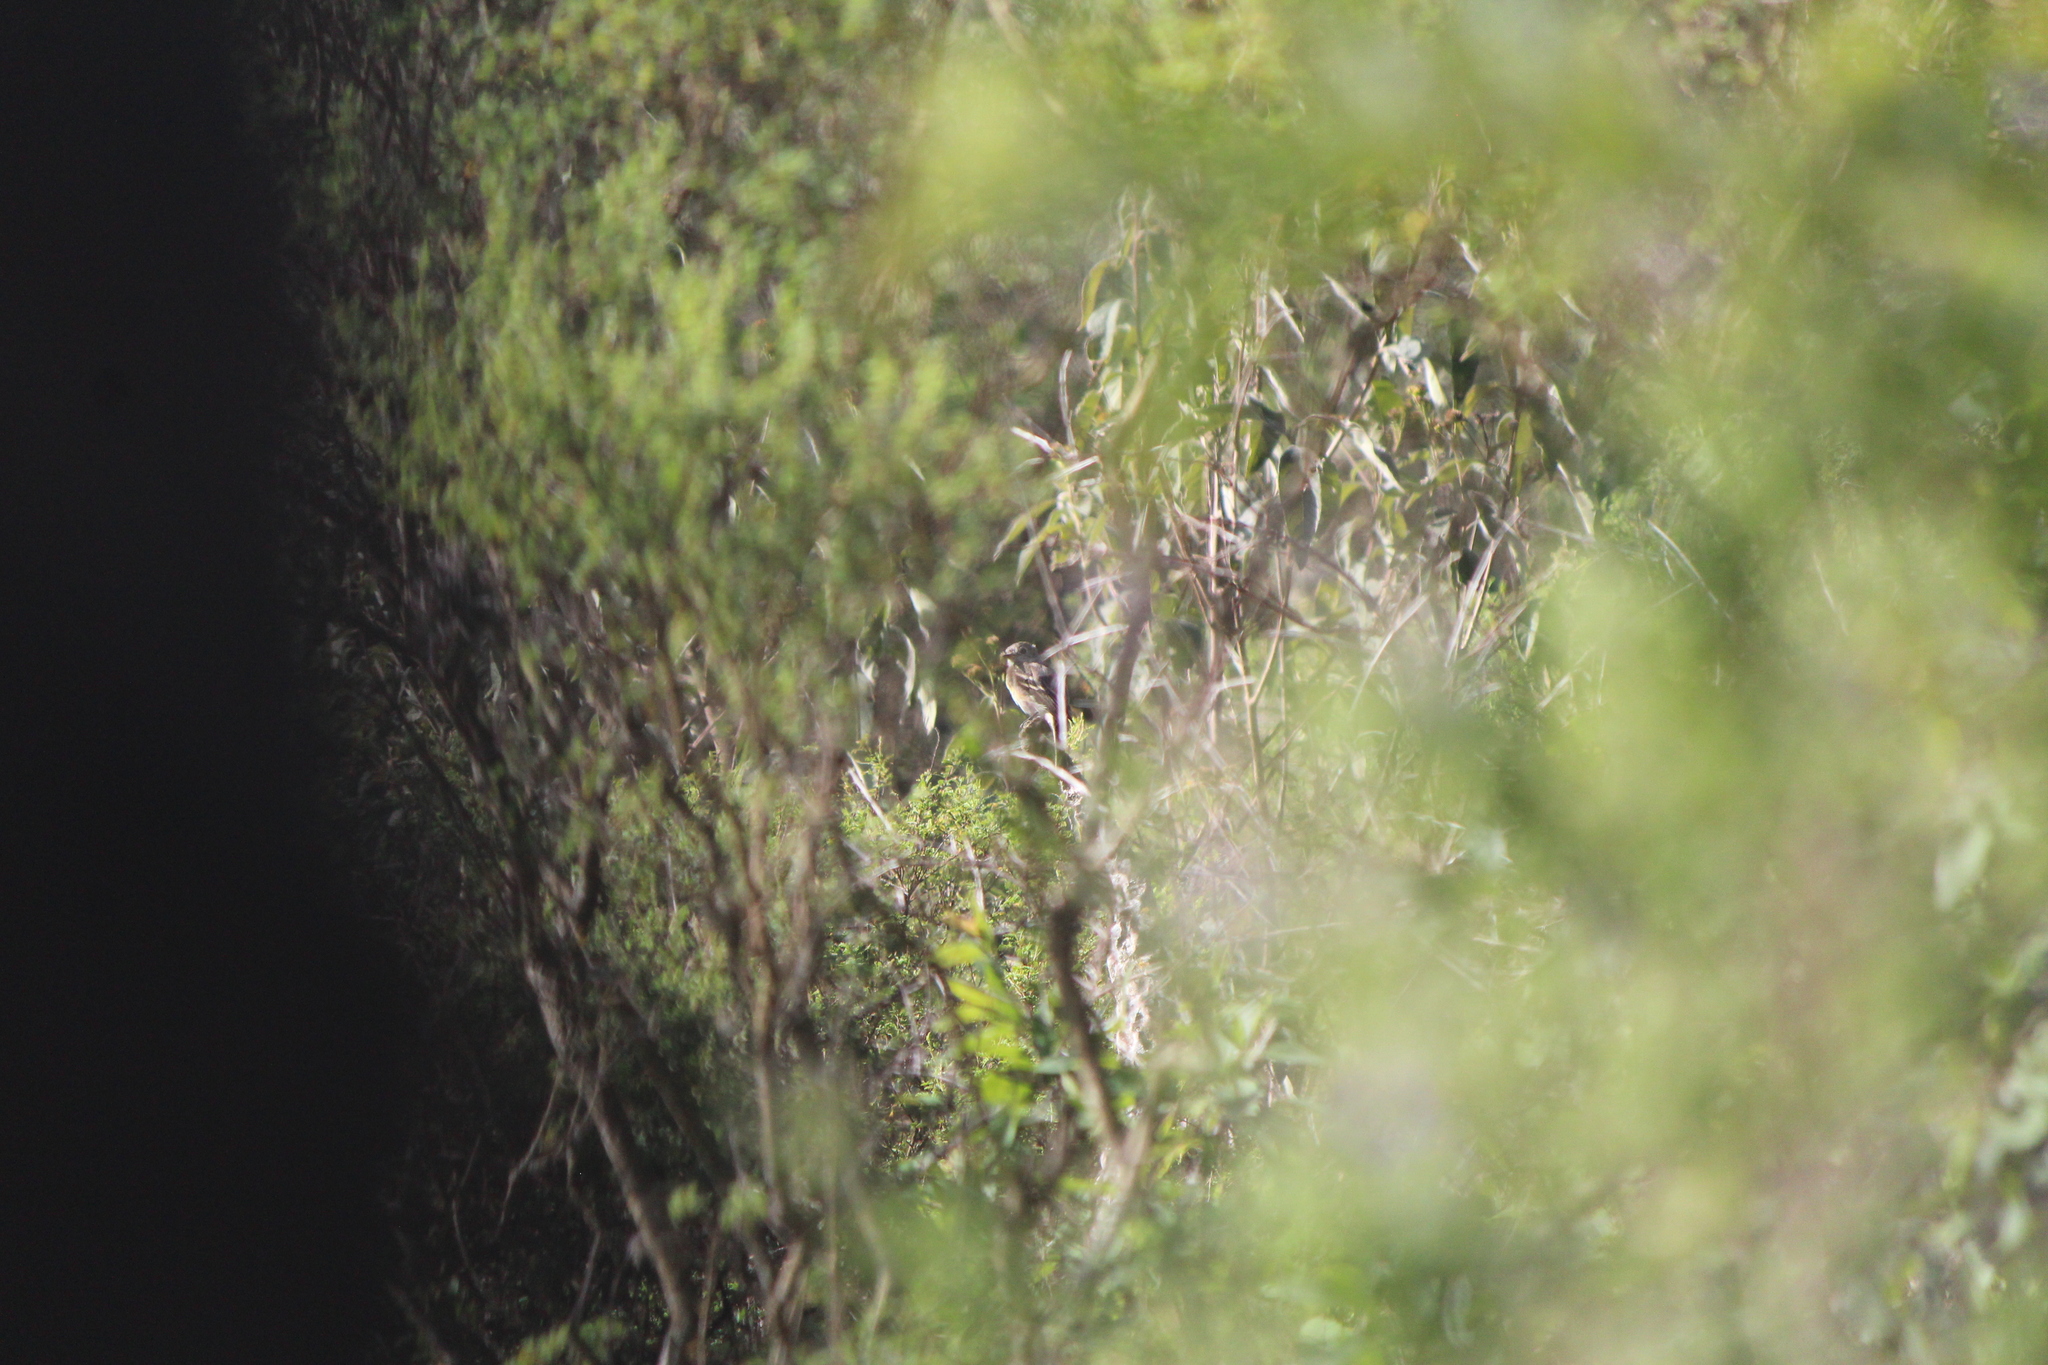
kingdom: Animalia
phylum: Chordata
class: Aves
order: Passeriformes
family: Tyrannidae
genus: Empidonax
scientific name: Empidonax
